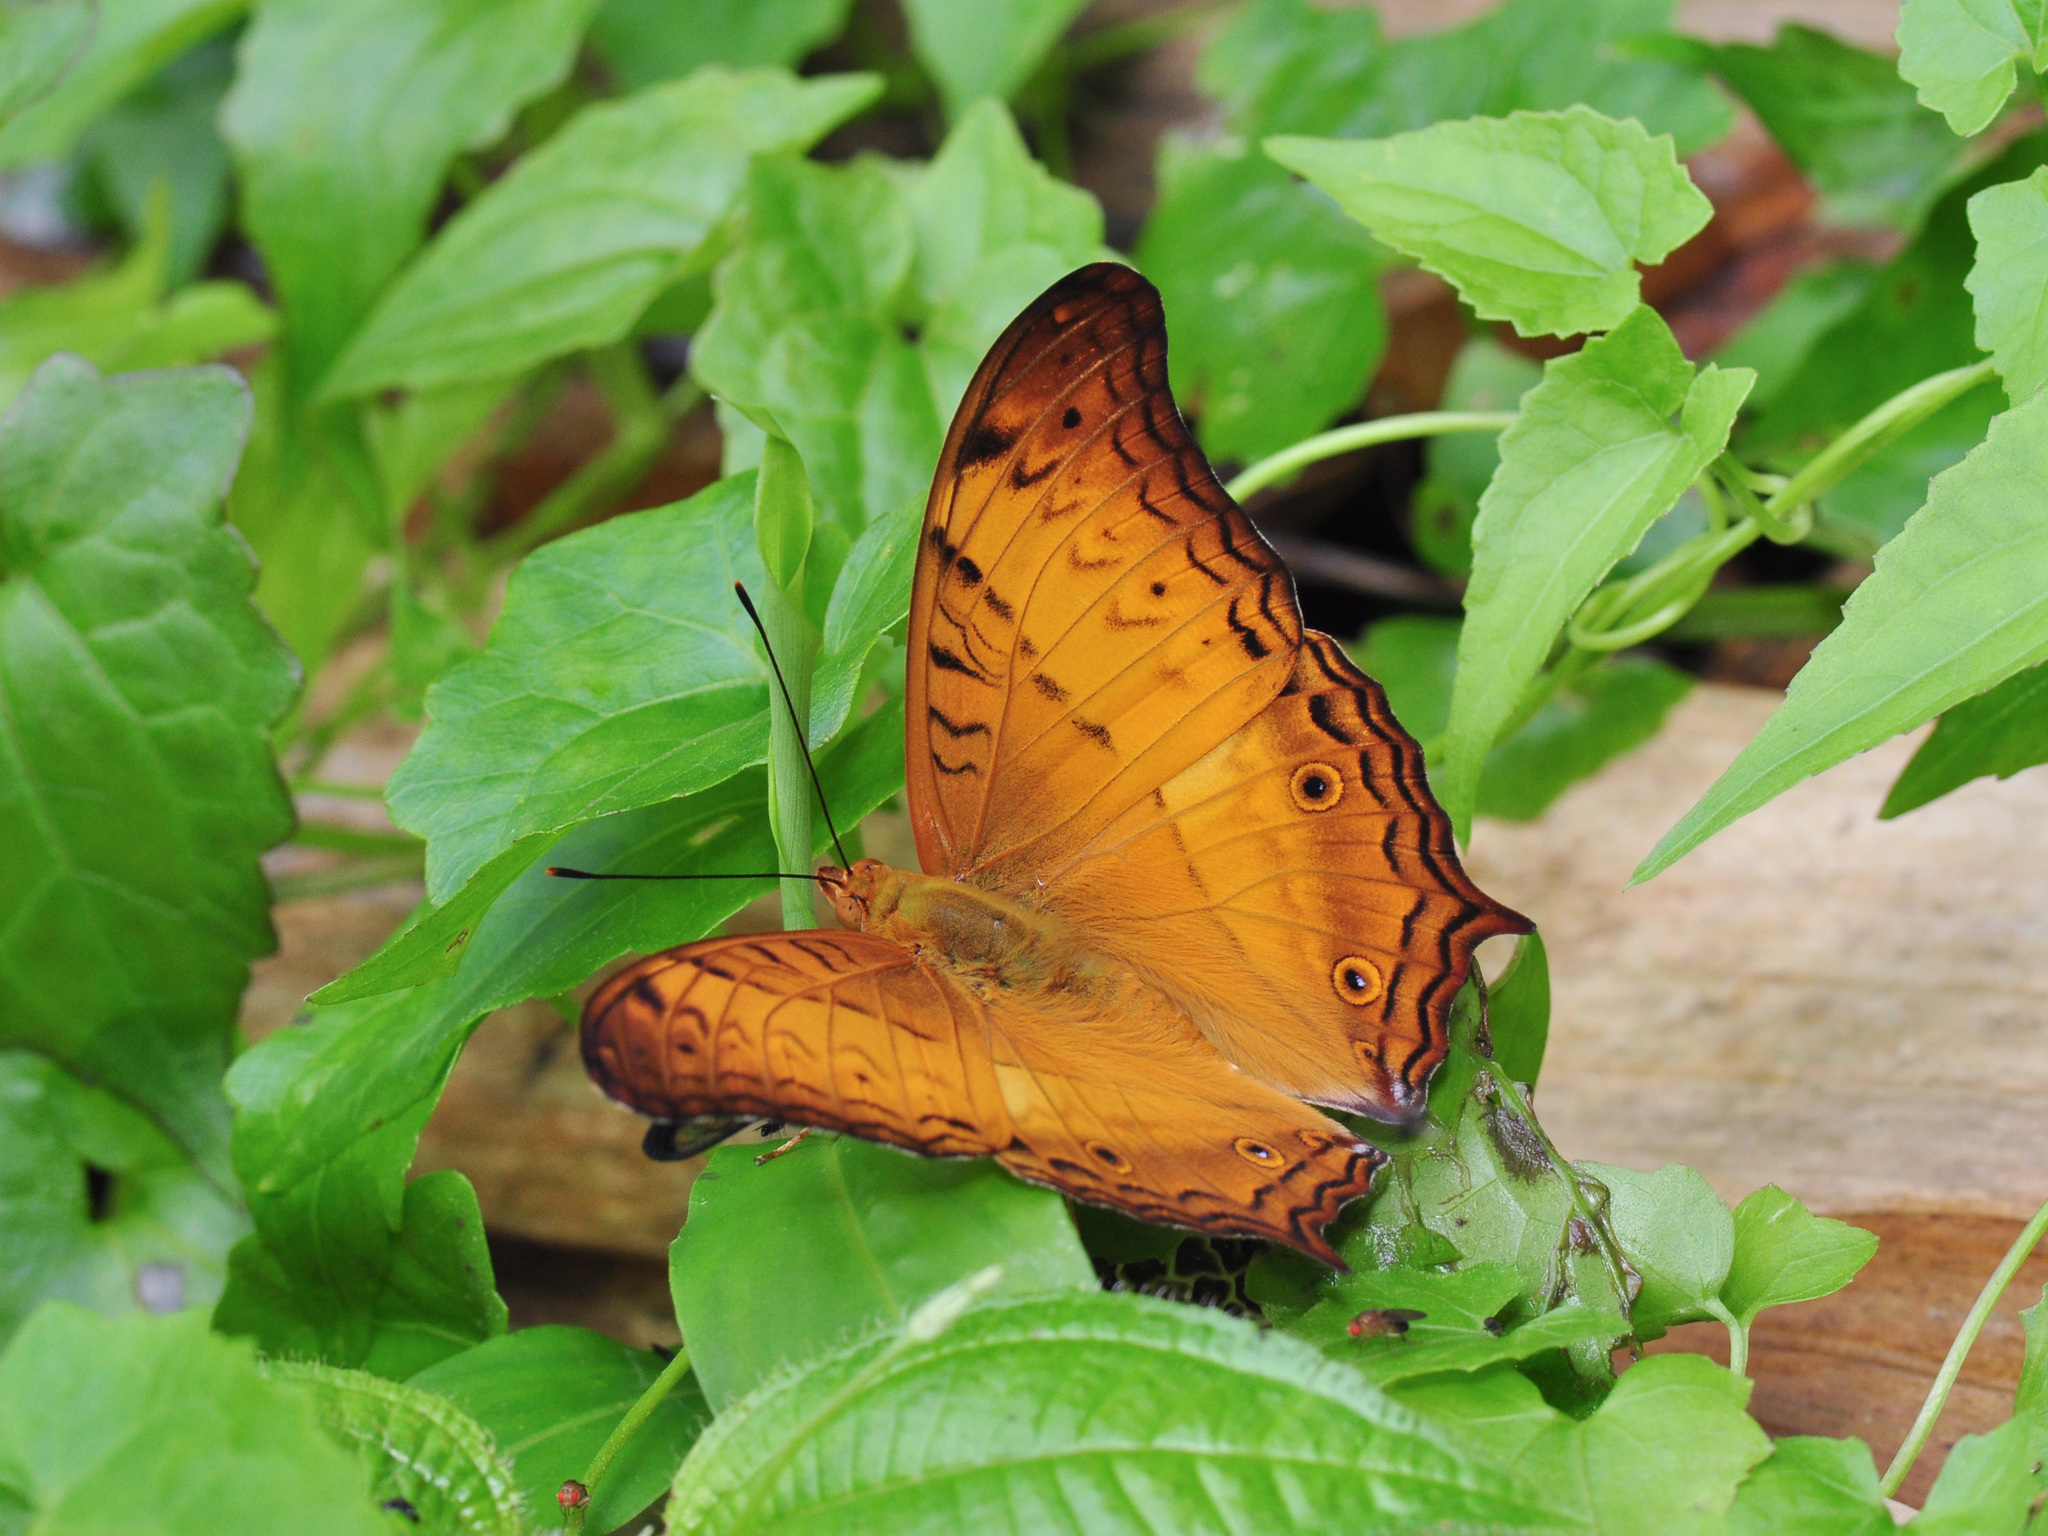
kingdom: Animalia
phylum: Arthropoda
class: Insecta
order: Lepidoptera
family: Nymphalidae
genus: Vindula
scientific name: Vindula deione
